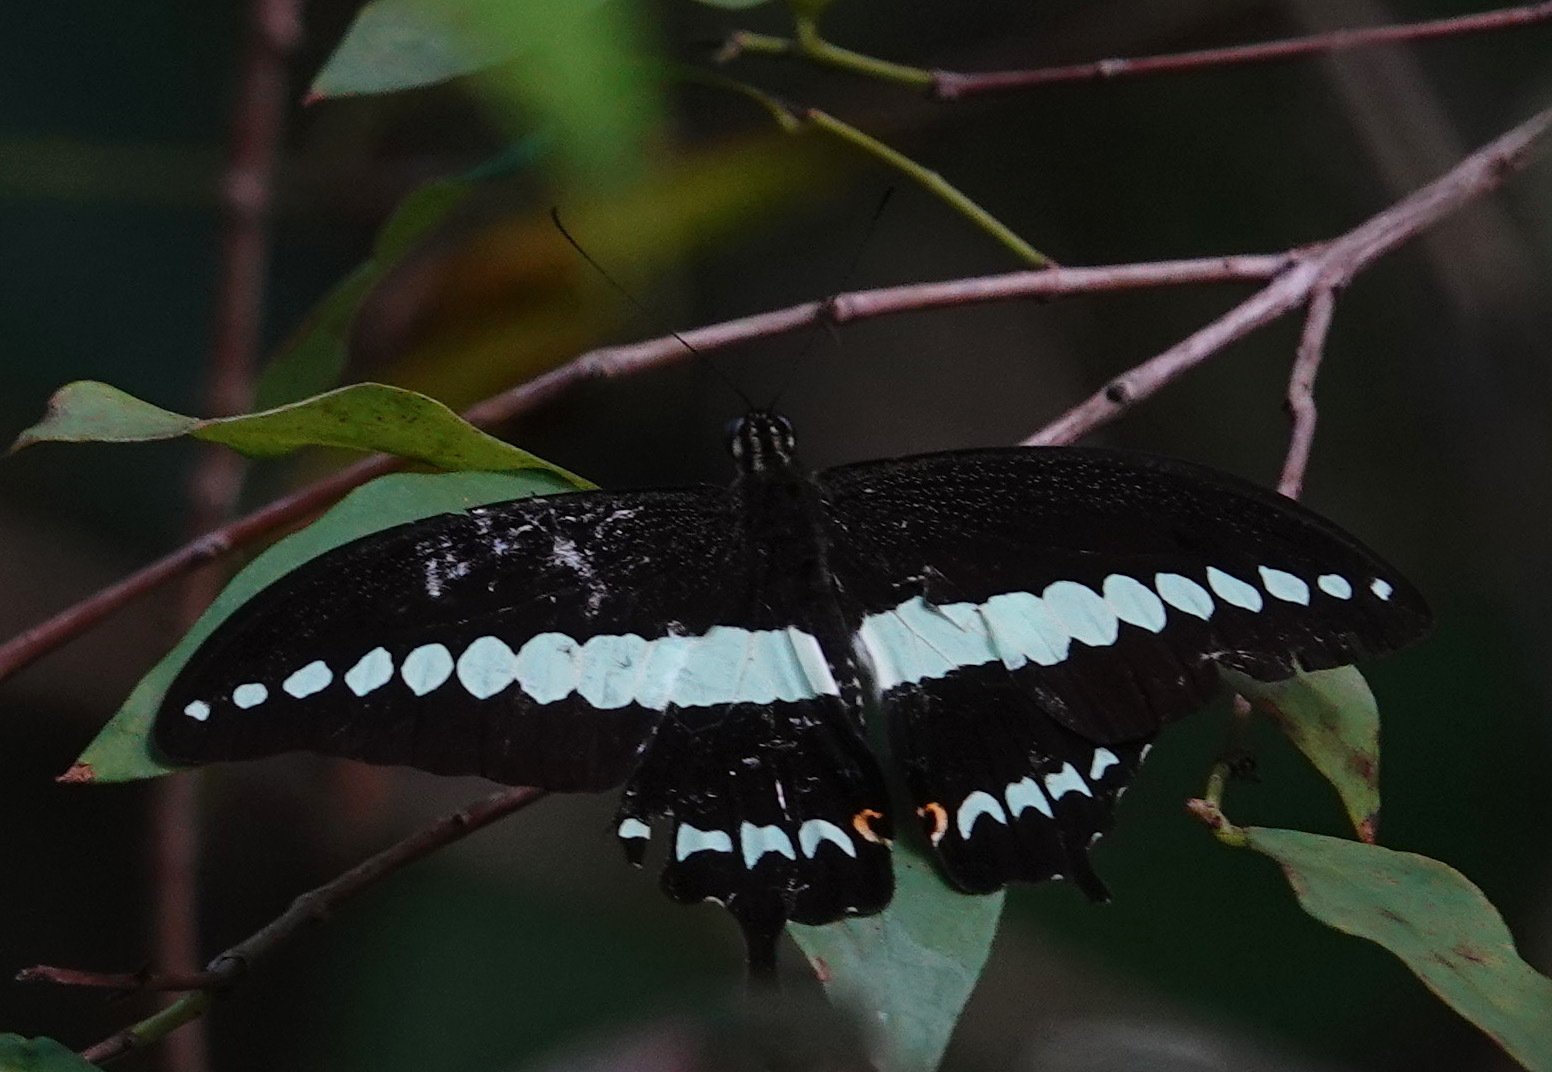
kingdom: Animalia
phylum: Arthropoda
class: Insecta
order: Lepidoptera
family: Papilionidae
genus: Papilio
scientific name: Papilio demolion
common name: Banded swallowtail
